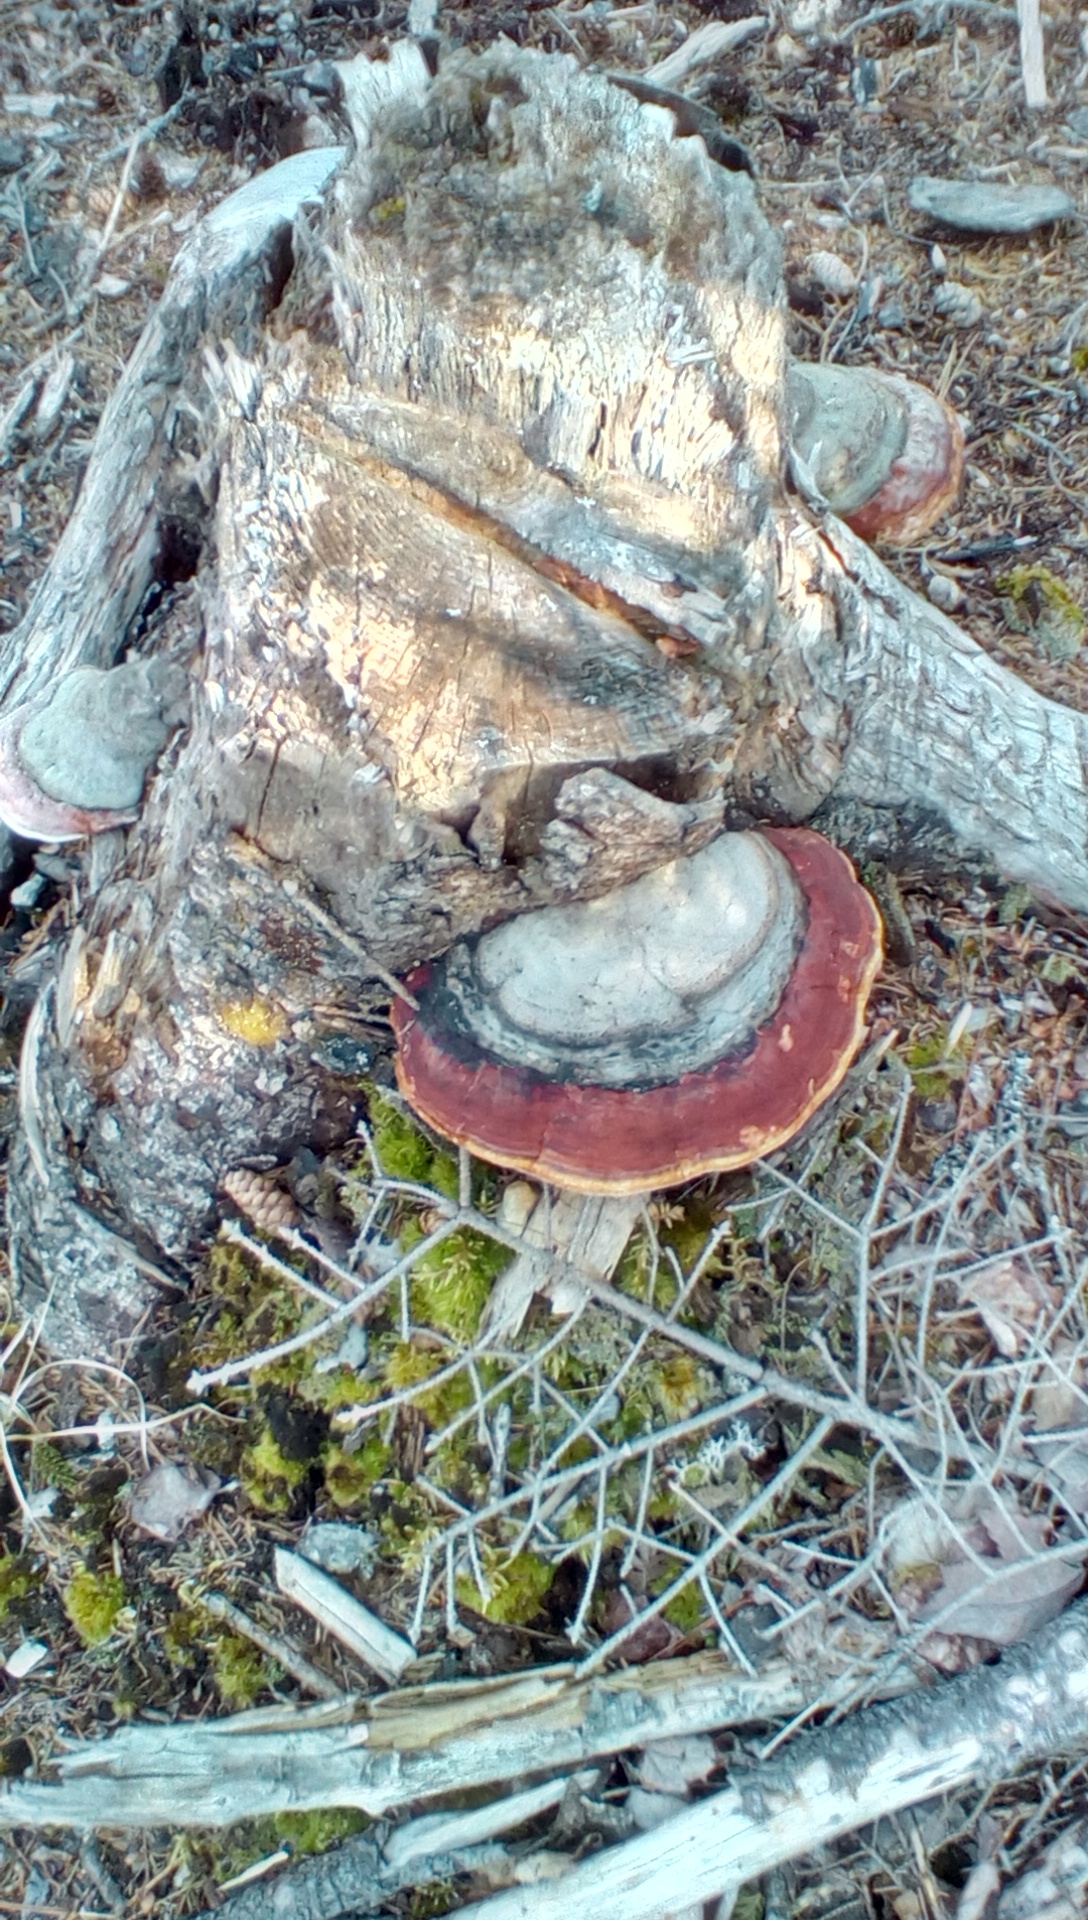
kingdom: Fungi
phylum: Basidiomycota
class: Agaricomycetes
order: Polyporales
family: Fomitopsidaceae
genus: Fomitopsis
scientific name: Fomitopsis mounceae
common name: Northern red belt
